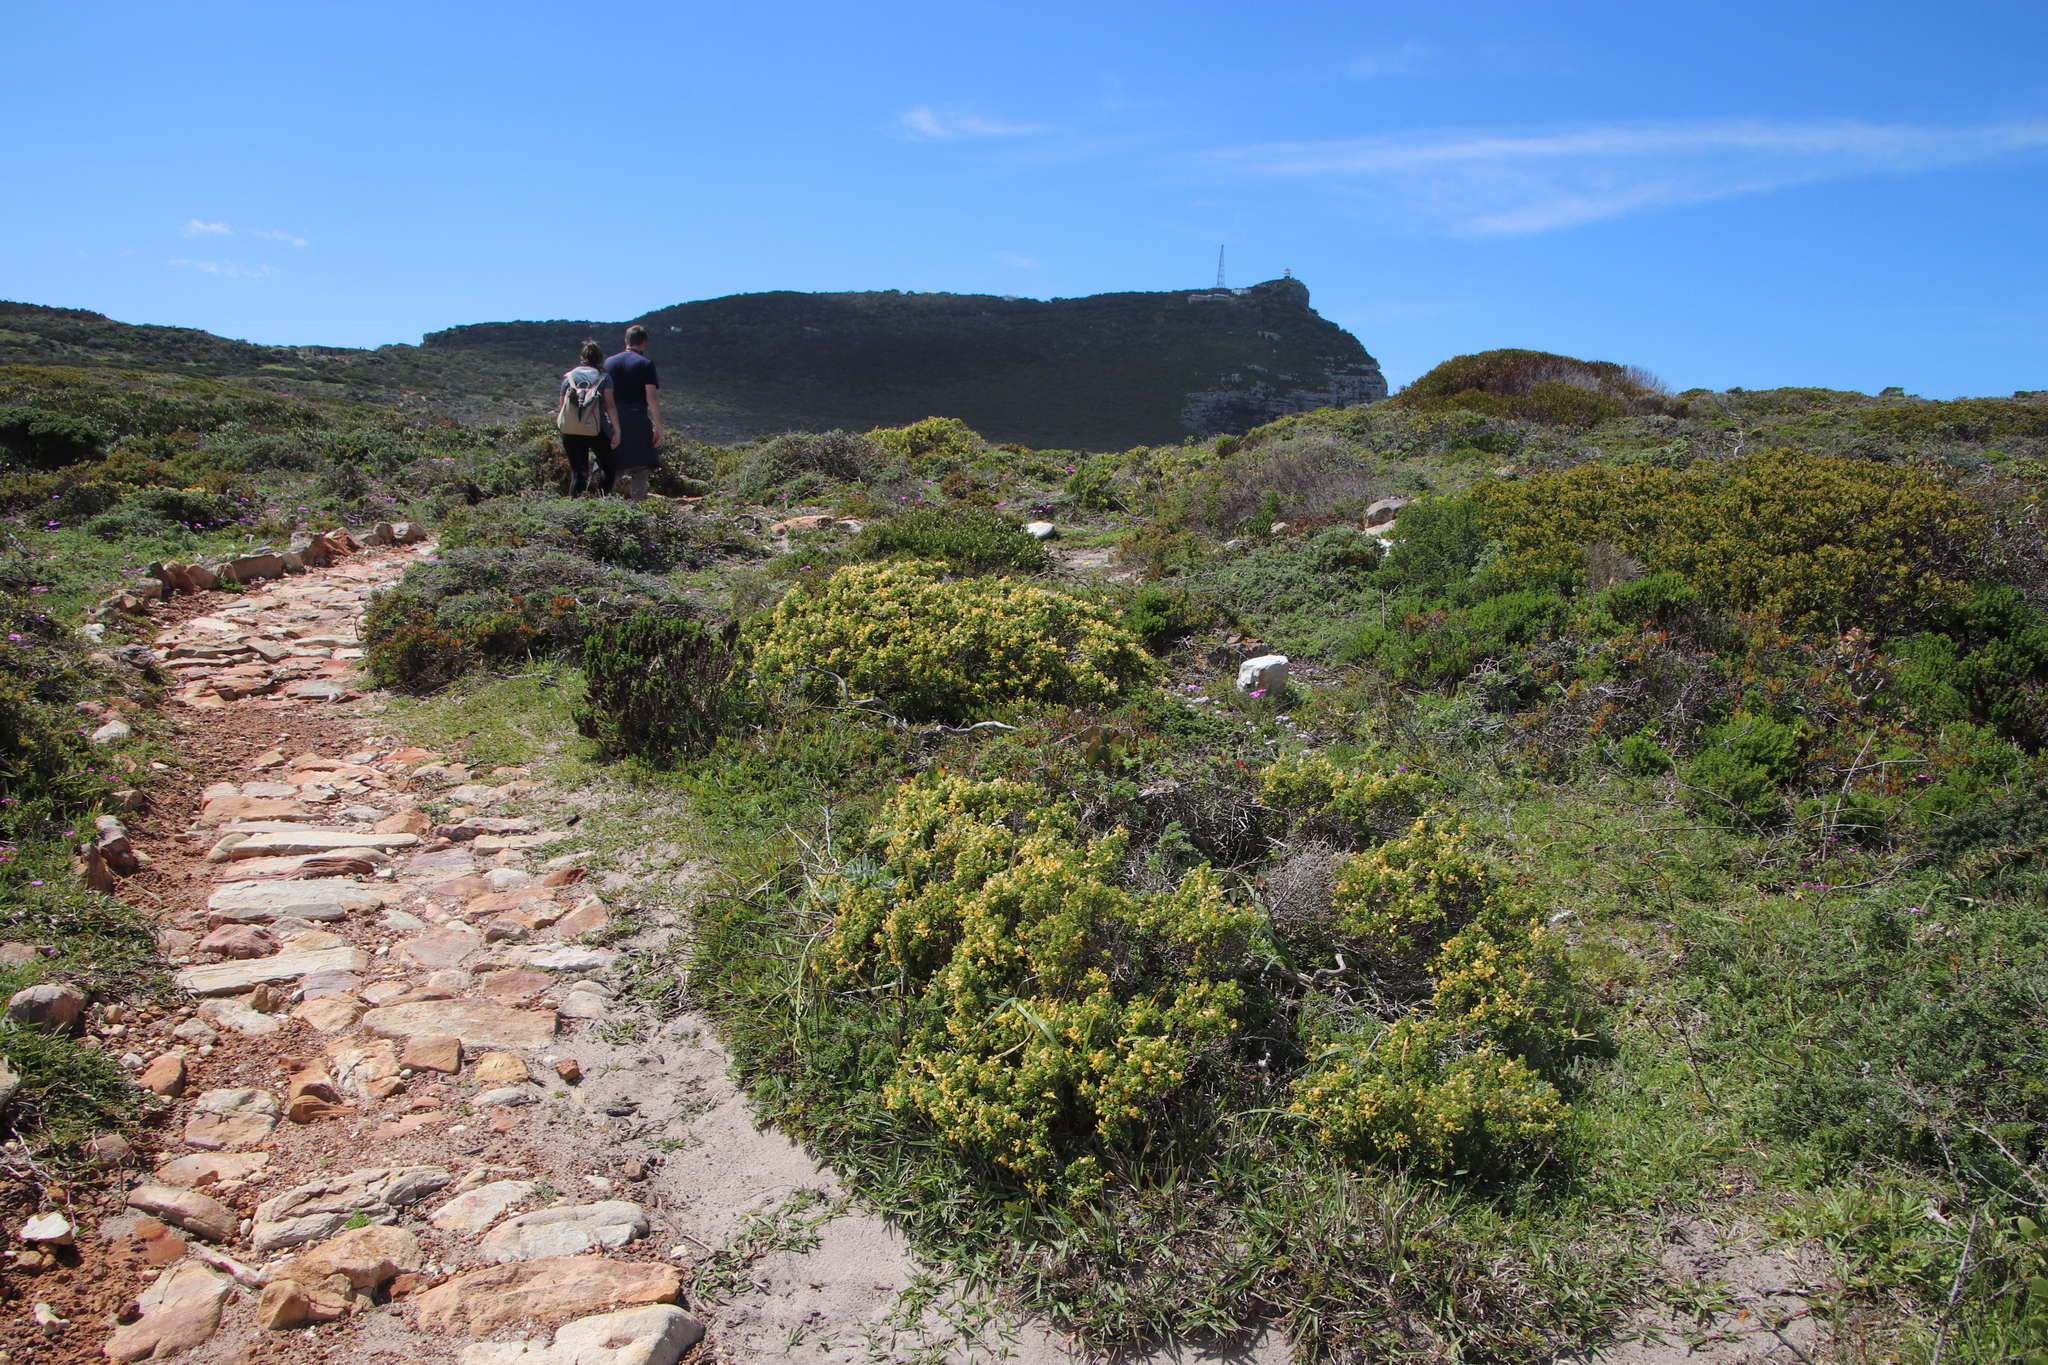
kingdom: Plantae
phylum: Tracheophyta
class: Magnoliopsida
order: Zygophyllales
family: Zygophyllaceae
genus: Roepera
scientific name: Roepera flexuosa
